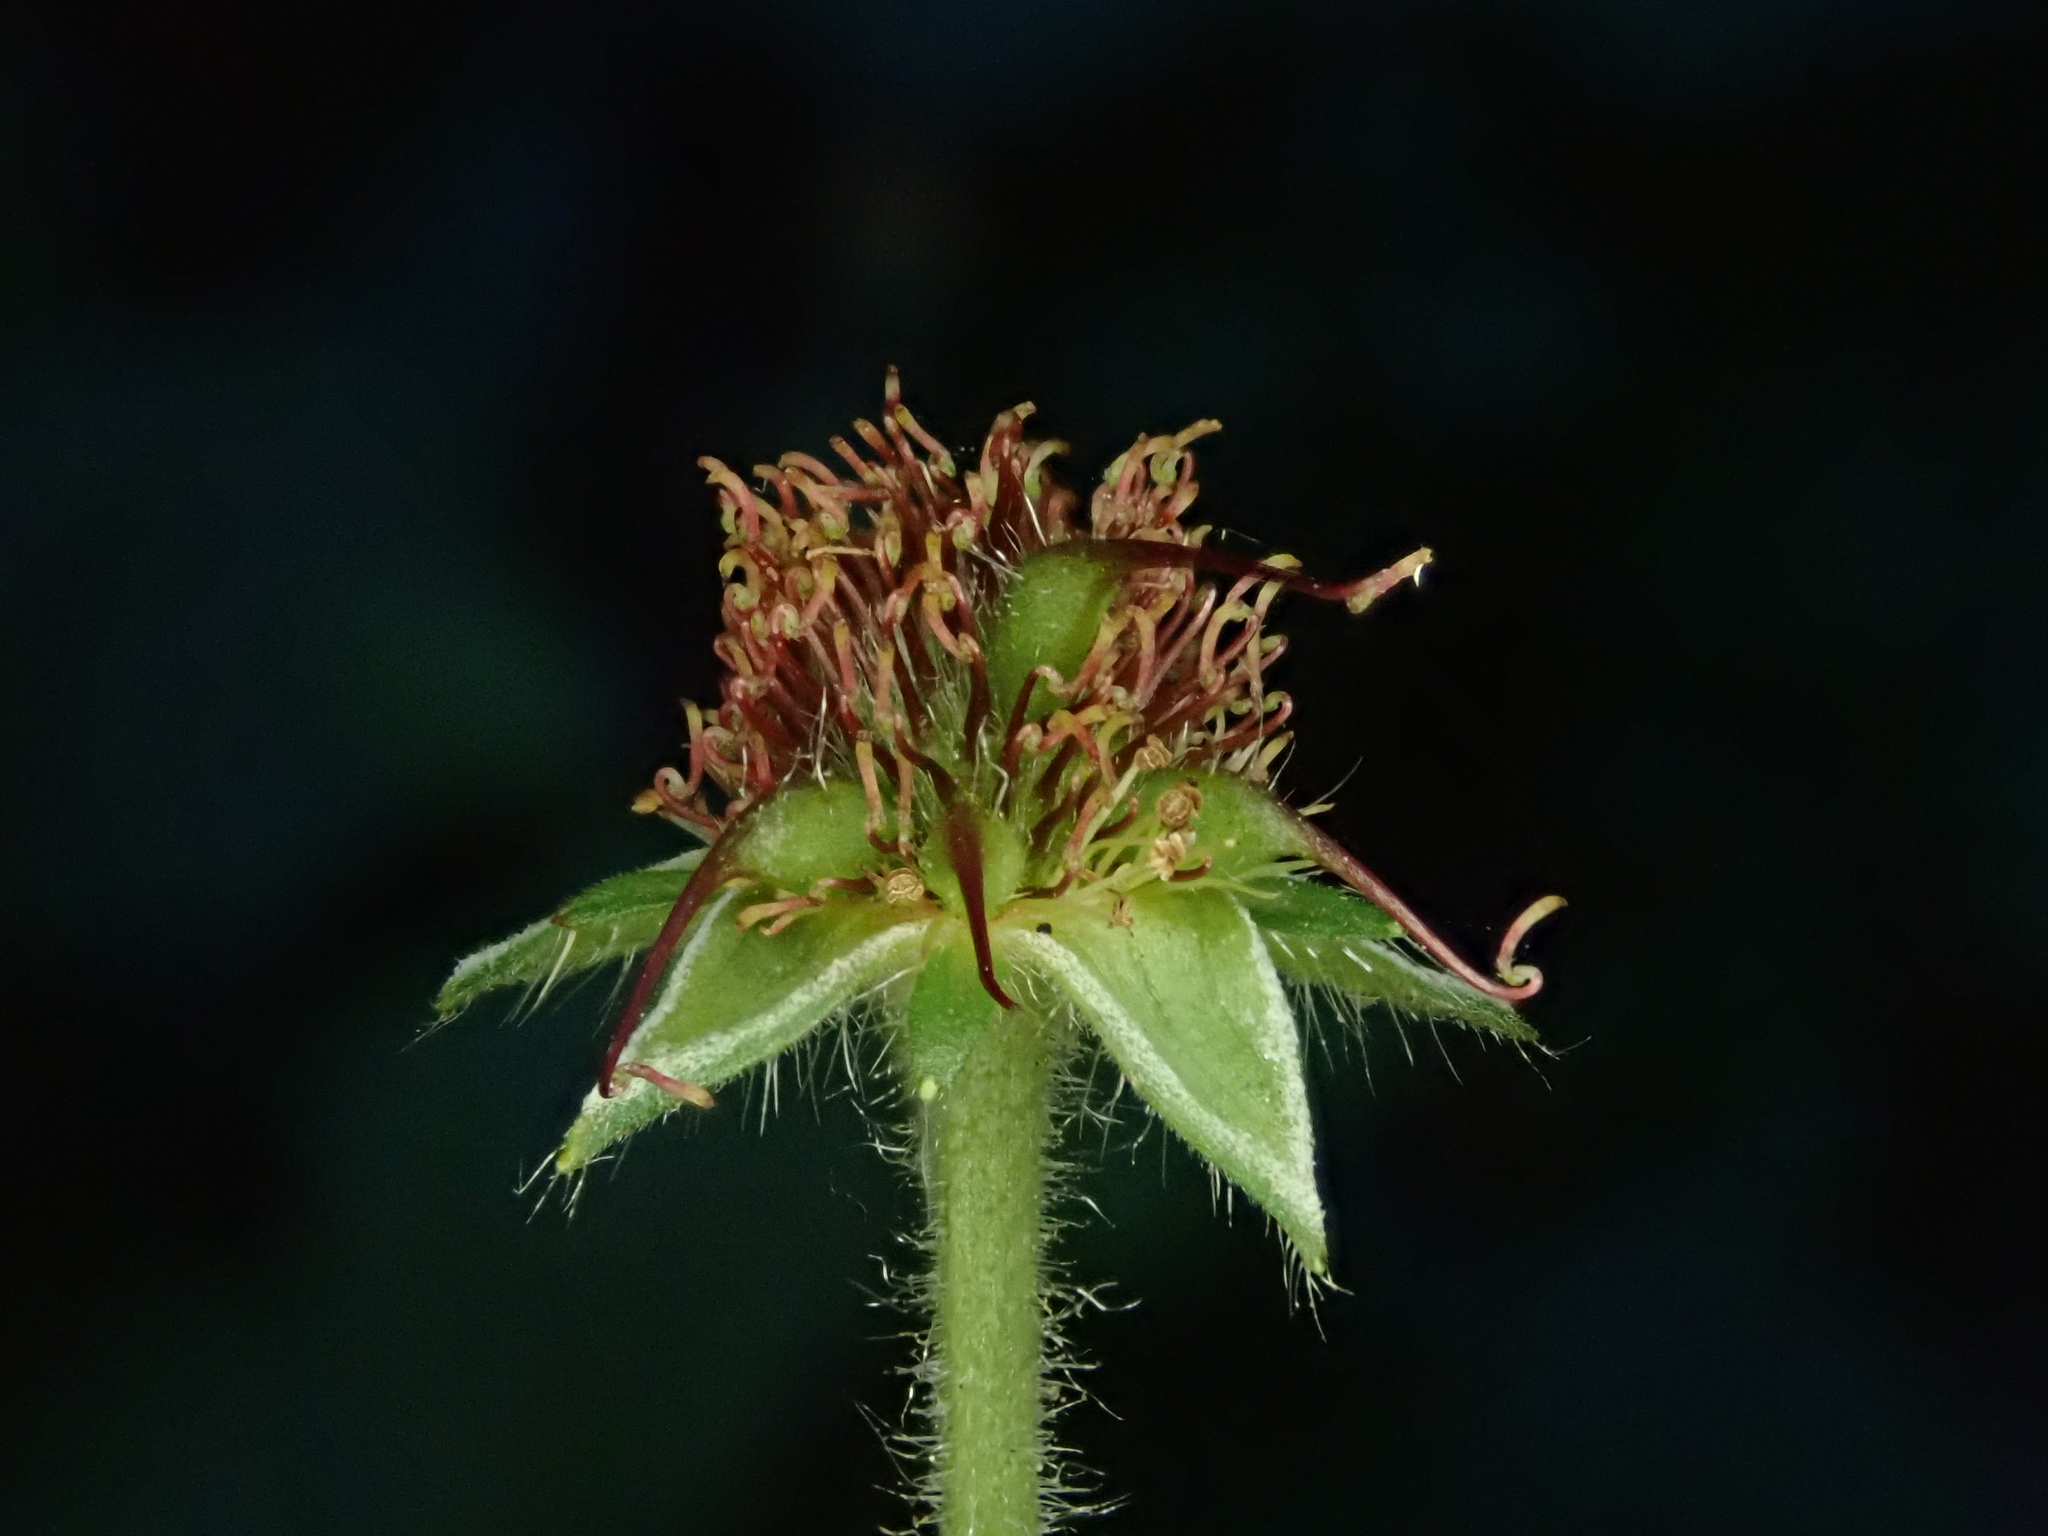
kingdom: Plantae
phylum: Tracheophyta
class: Magnoliopsida
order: Rosales
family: Rosaceae
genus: Geum
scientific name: Geum urbanum
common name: Wood avens
